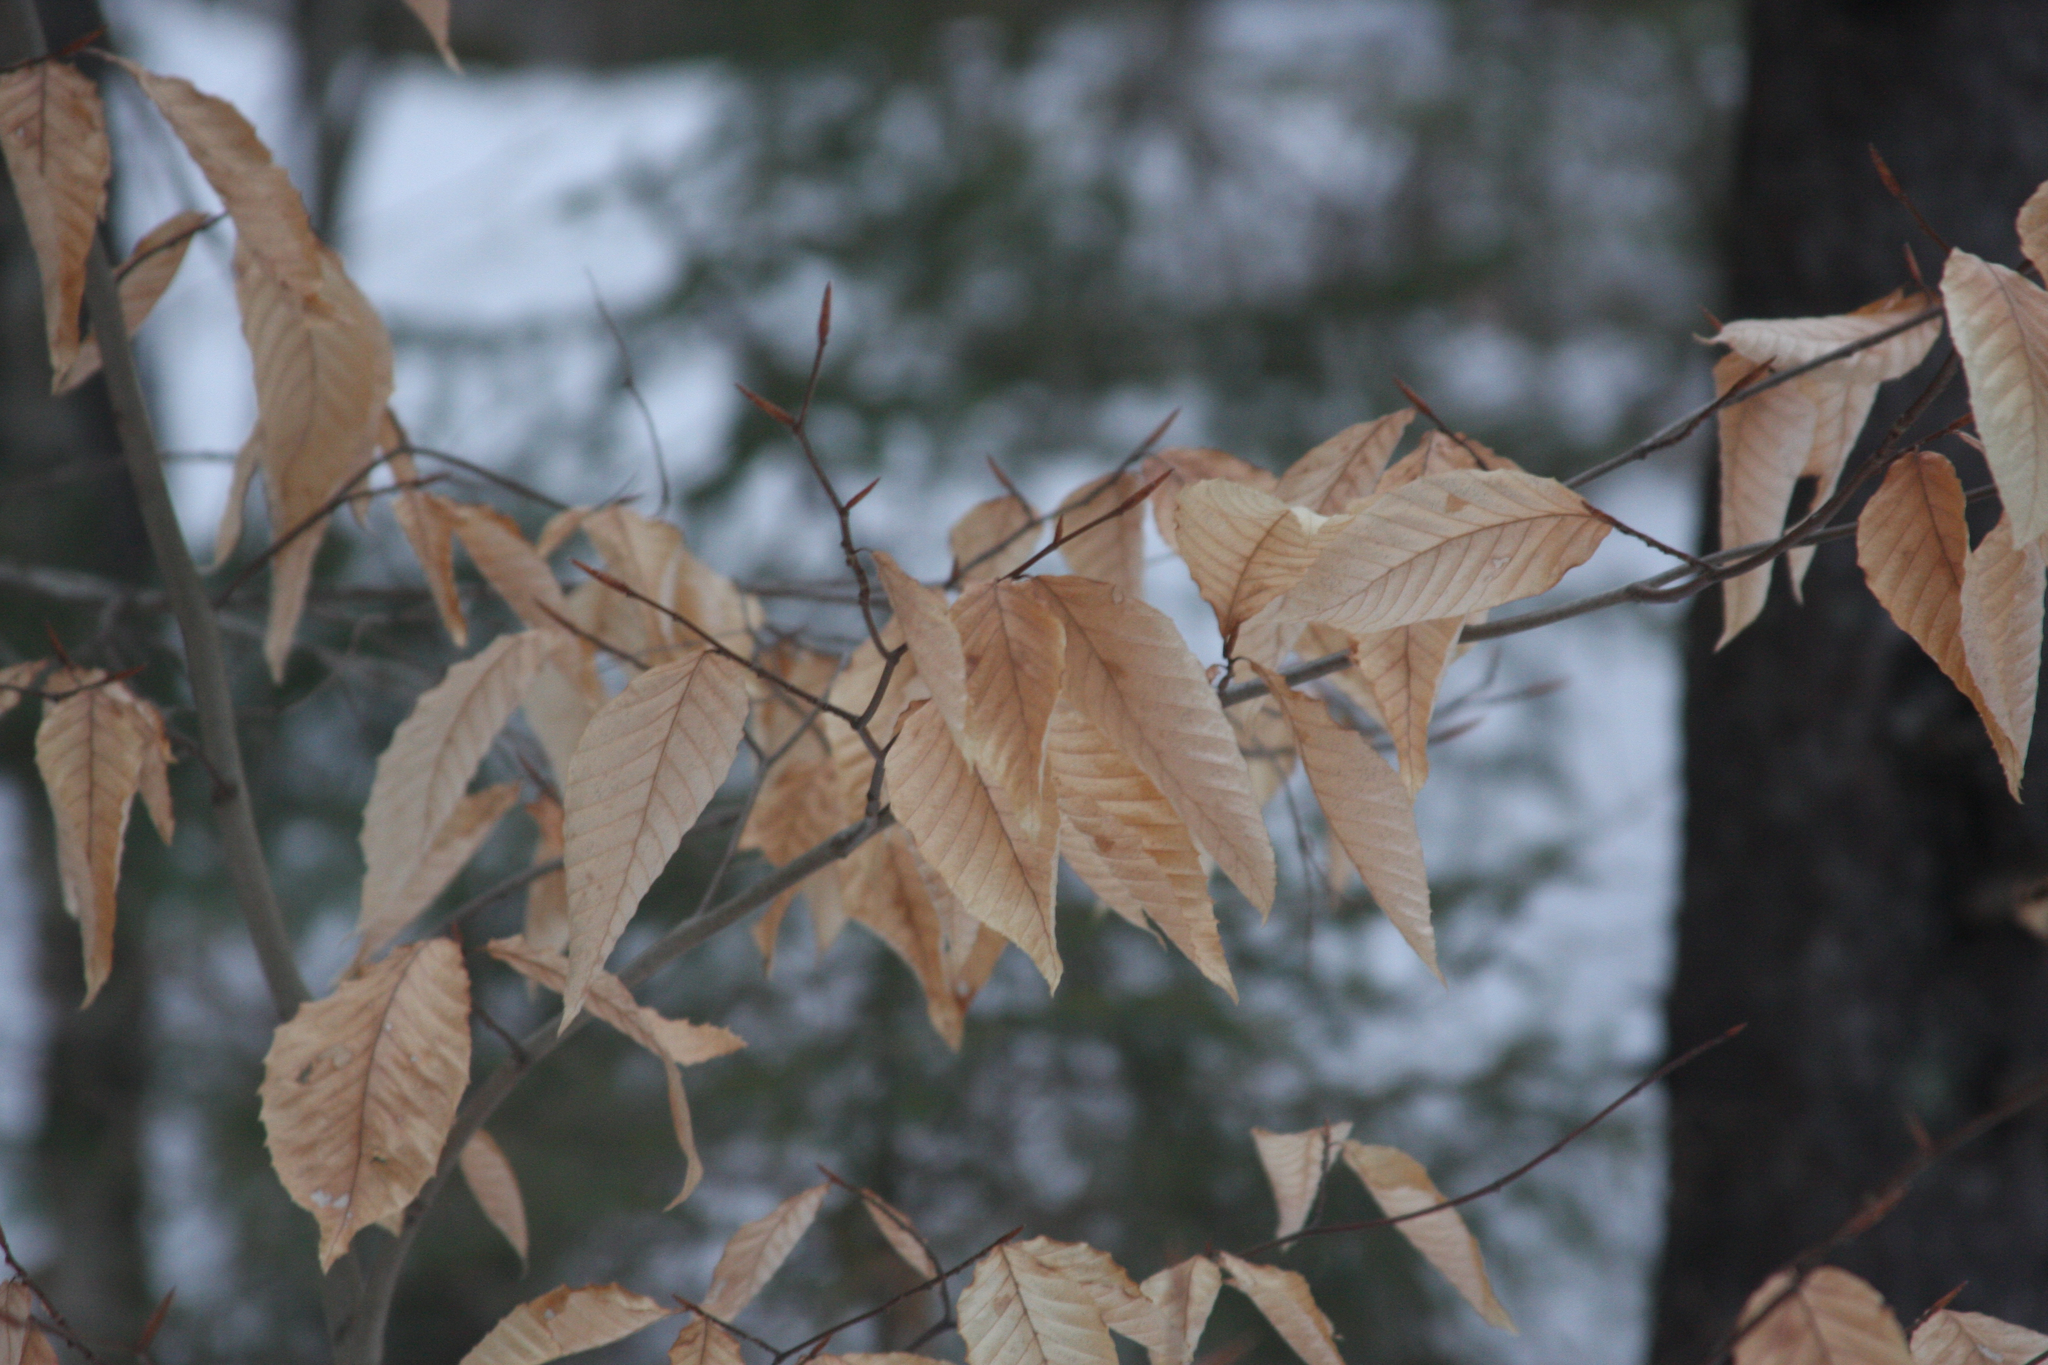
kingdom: Plantae
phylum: Tracheophyta
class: Magnoliopsida
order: Fagales
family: Fagaceae
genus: Fagus
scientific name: Fagus grandifolia
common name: American beech
